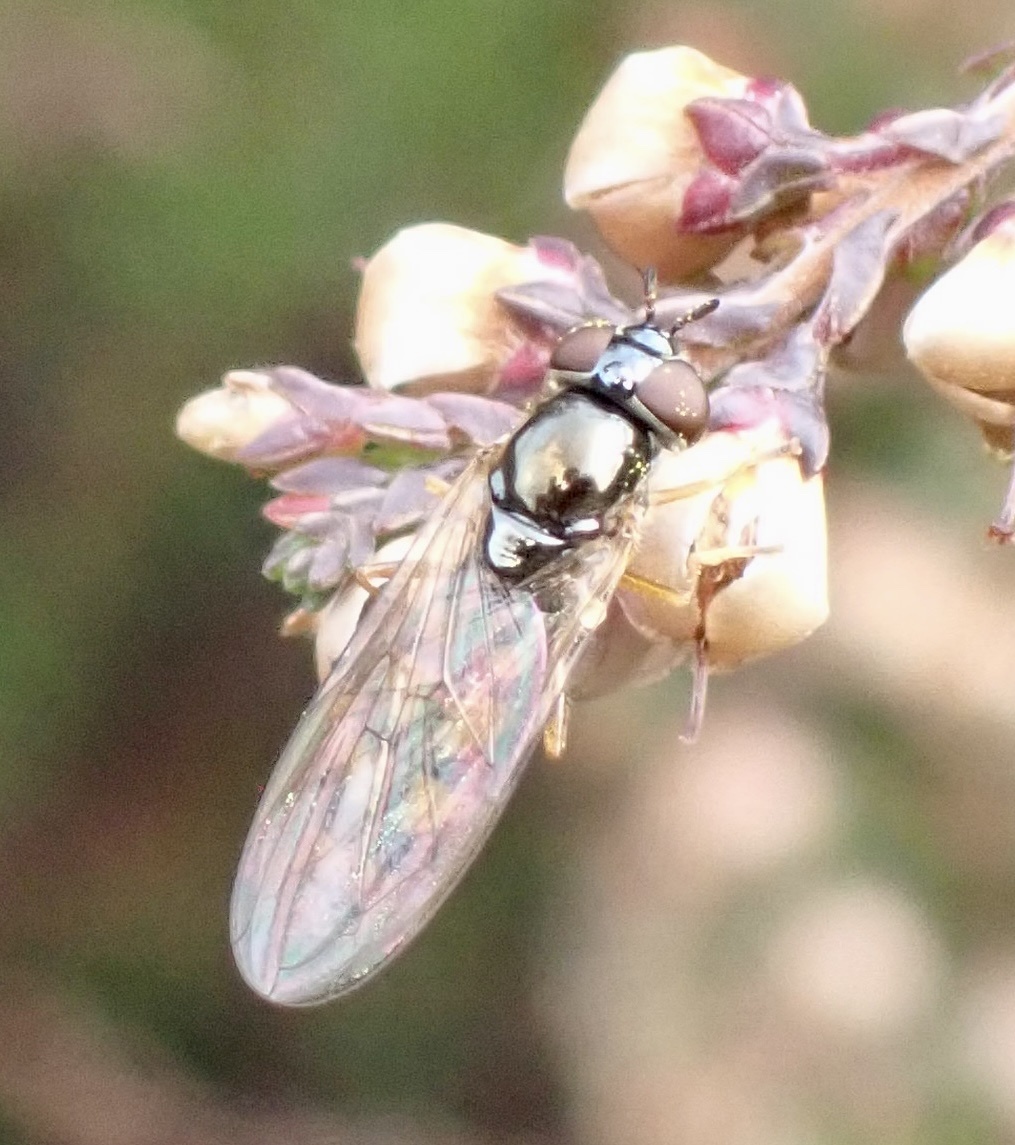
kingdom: Animalia
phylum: Arthropoda
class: Insecta
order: Diptera
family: Syrphidae
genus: Melanostoma
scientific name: Melanostoma mellina
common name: Hover fly
